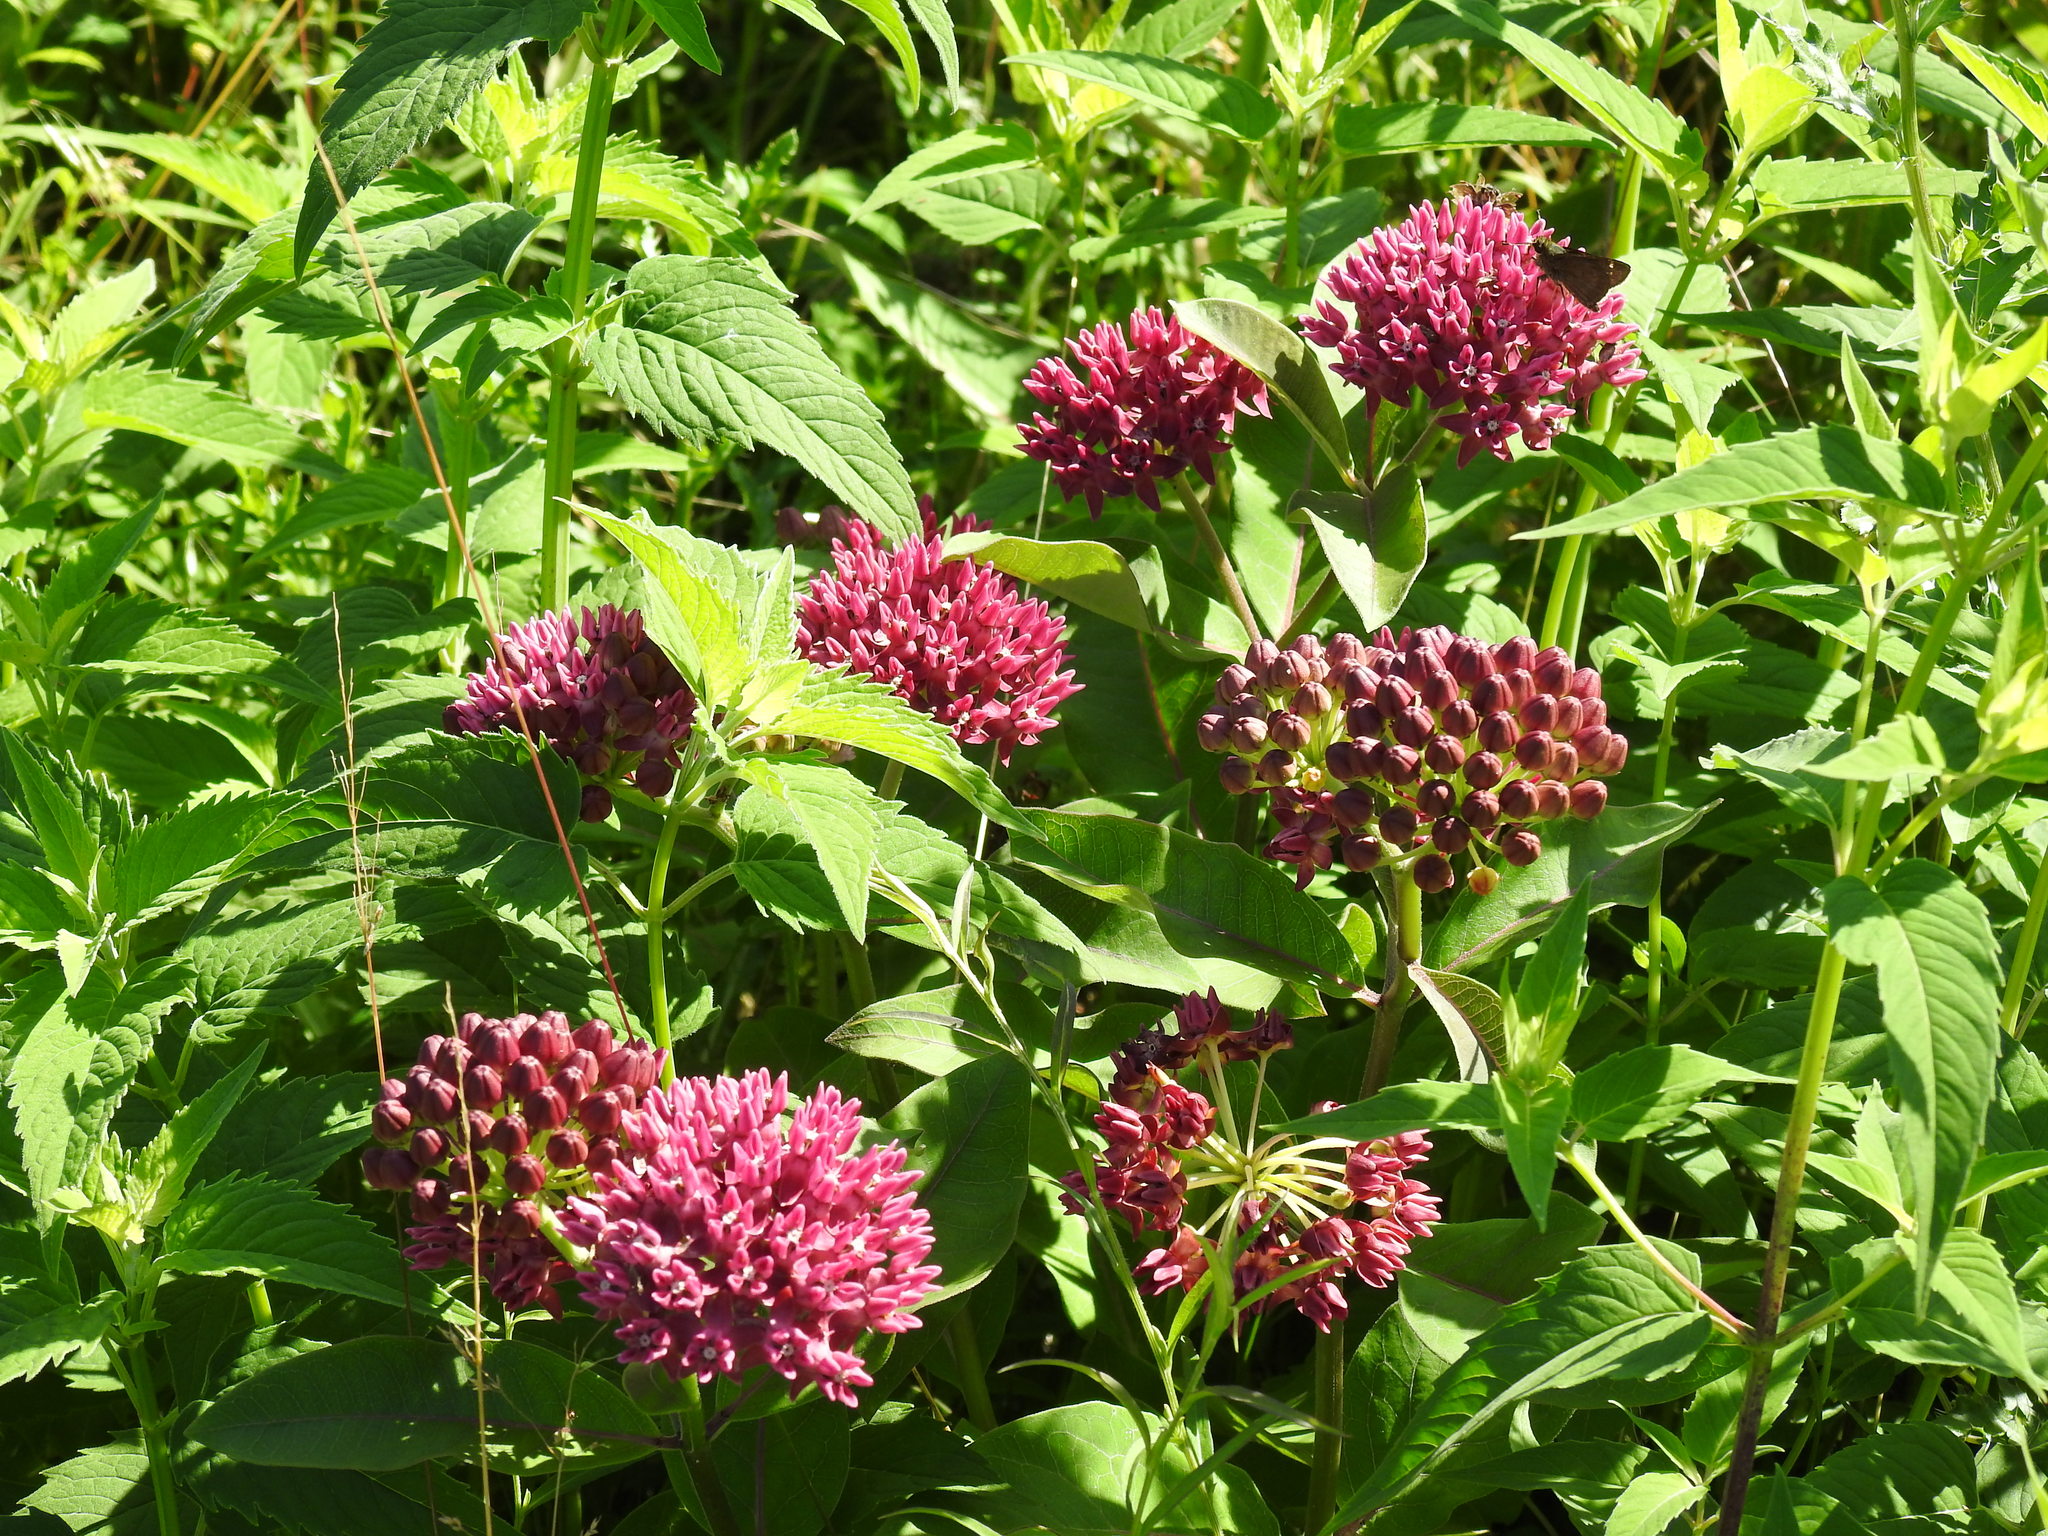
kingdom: Plantae
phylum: Tracheophyta
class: Magnoliopsida
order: Gentianales
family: Apocynaceae
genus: Asclepias
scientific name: Asclepias purpurascens
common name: Purple milkweed
